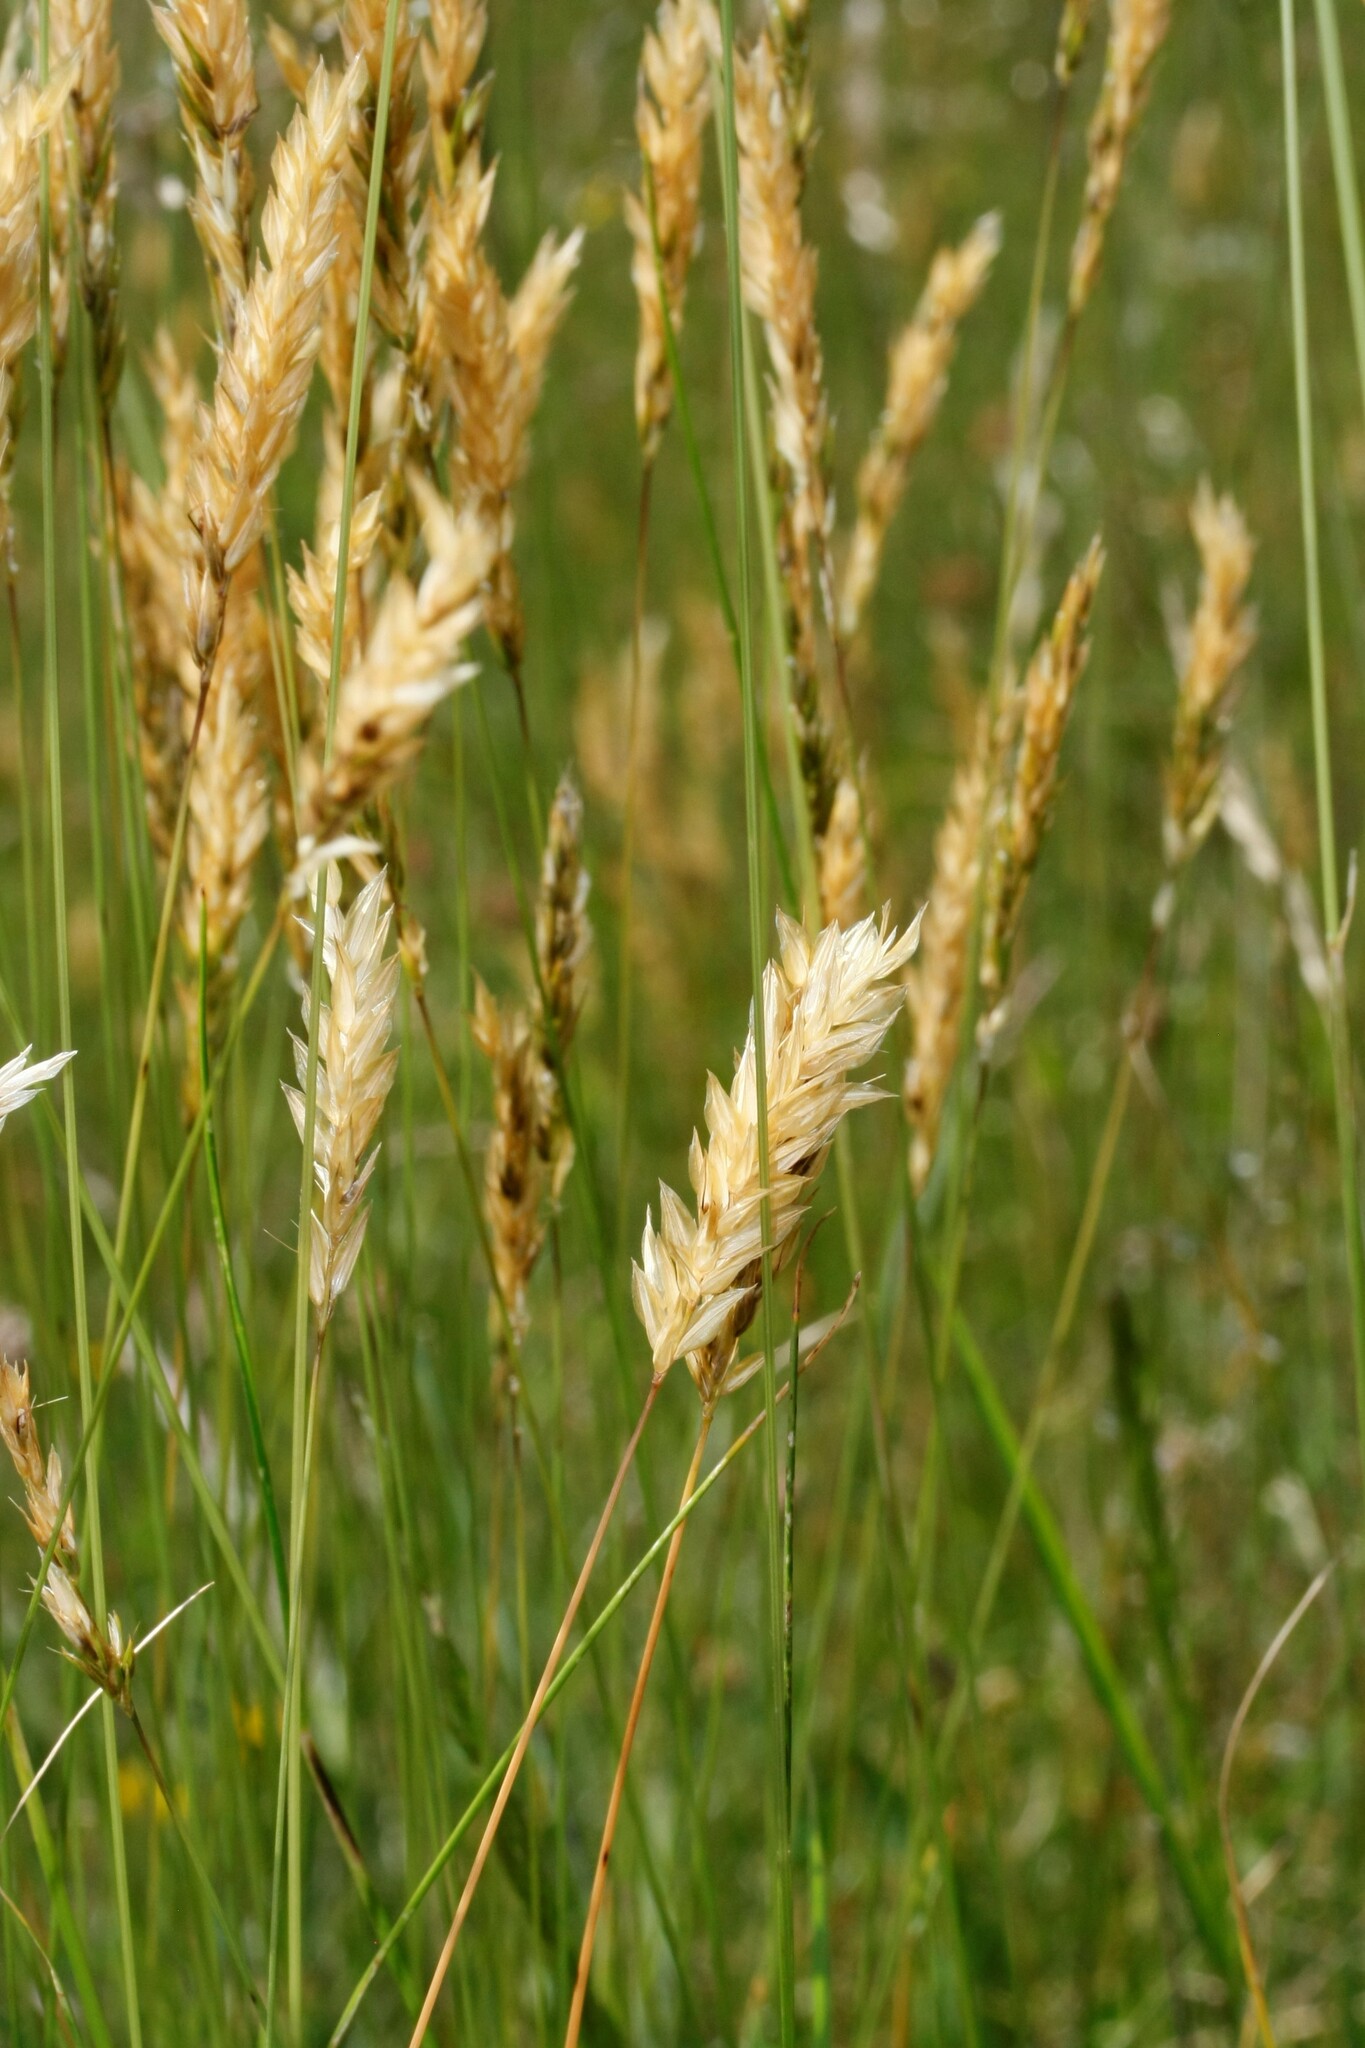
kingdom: Plantae
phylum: Tracheophyta
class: Liliopsida
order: Poales
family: Poaceae
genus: Anthoxanthum
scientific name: Anthoxanthum odoratum
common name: Sweet vernalgrass
